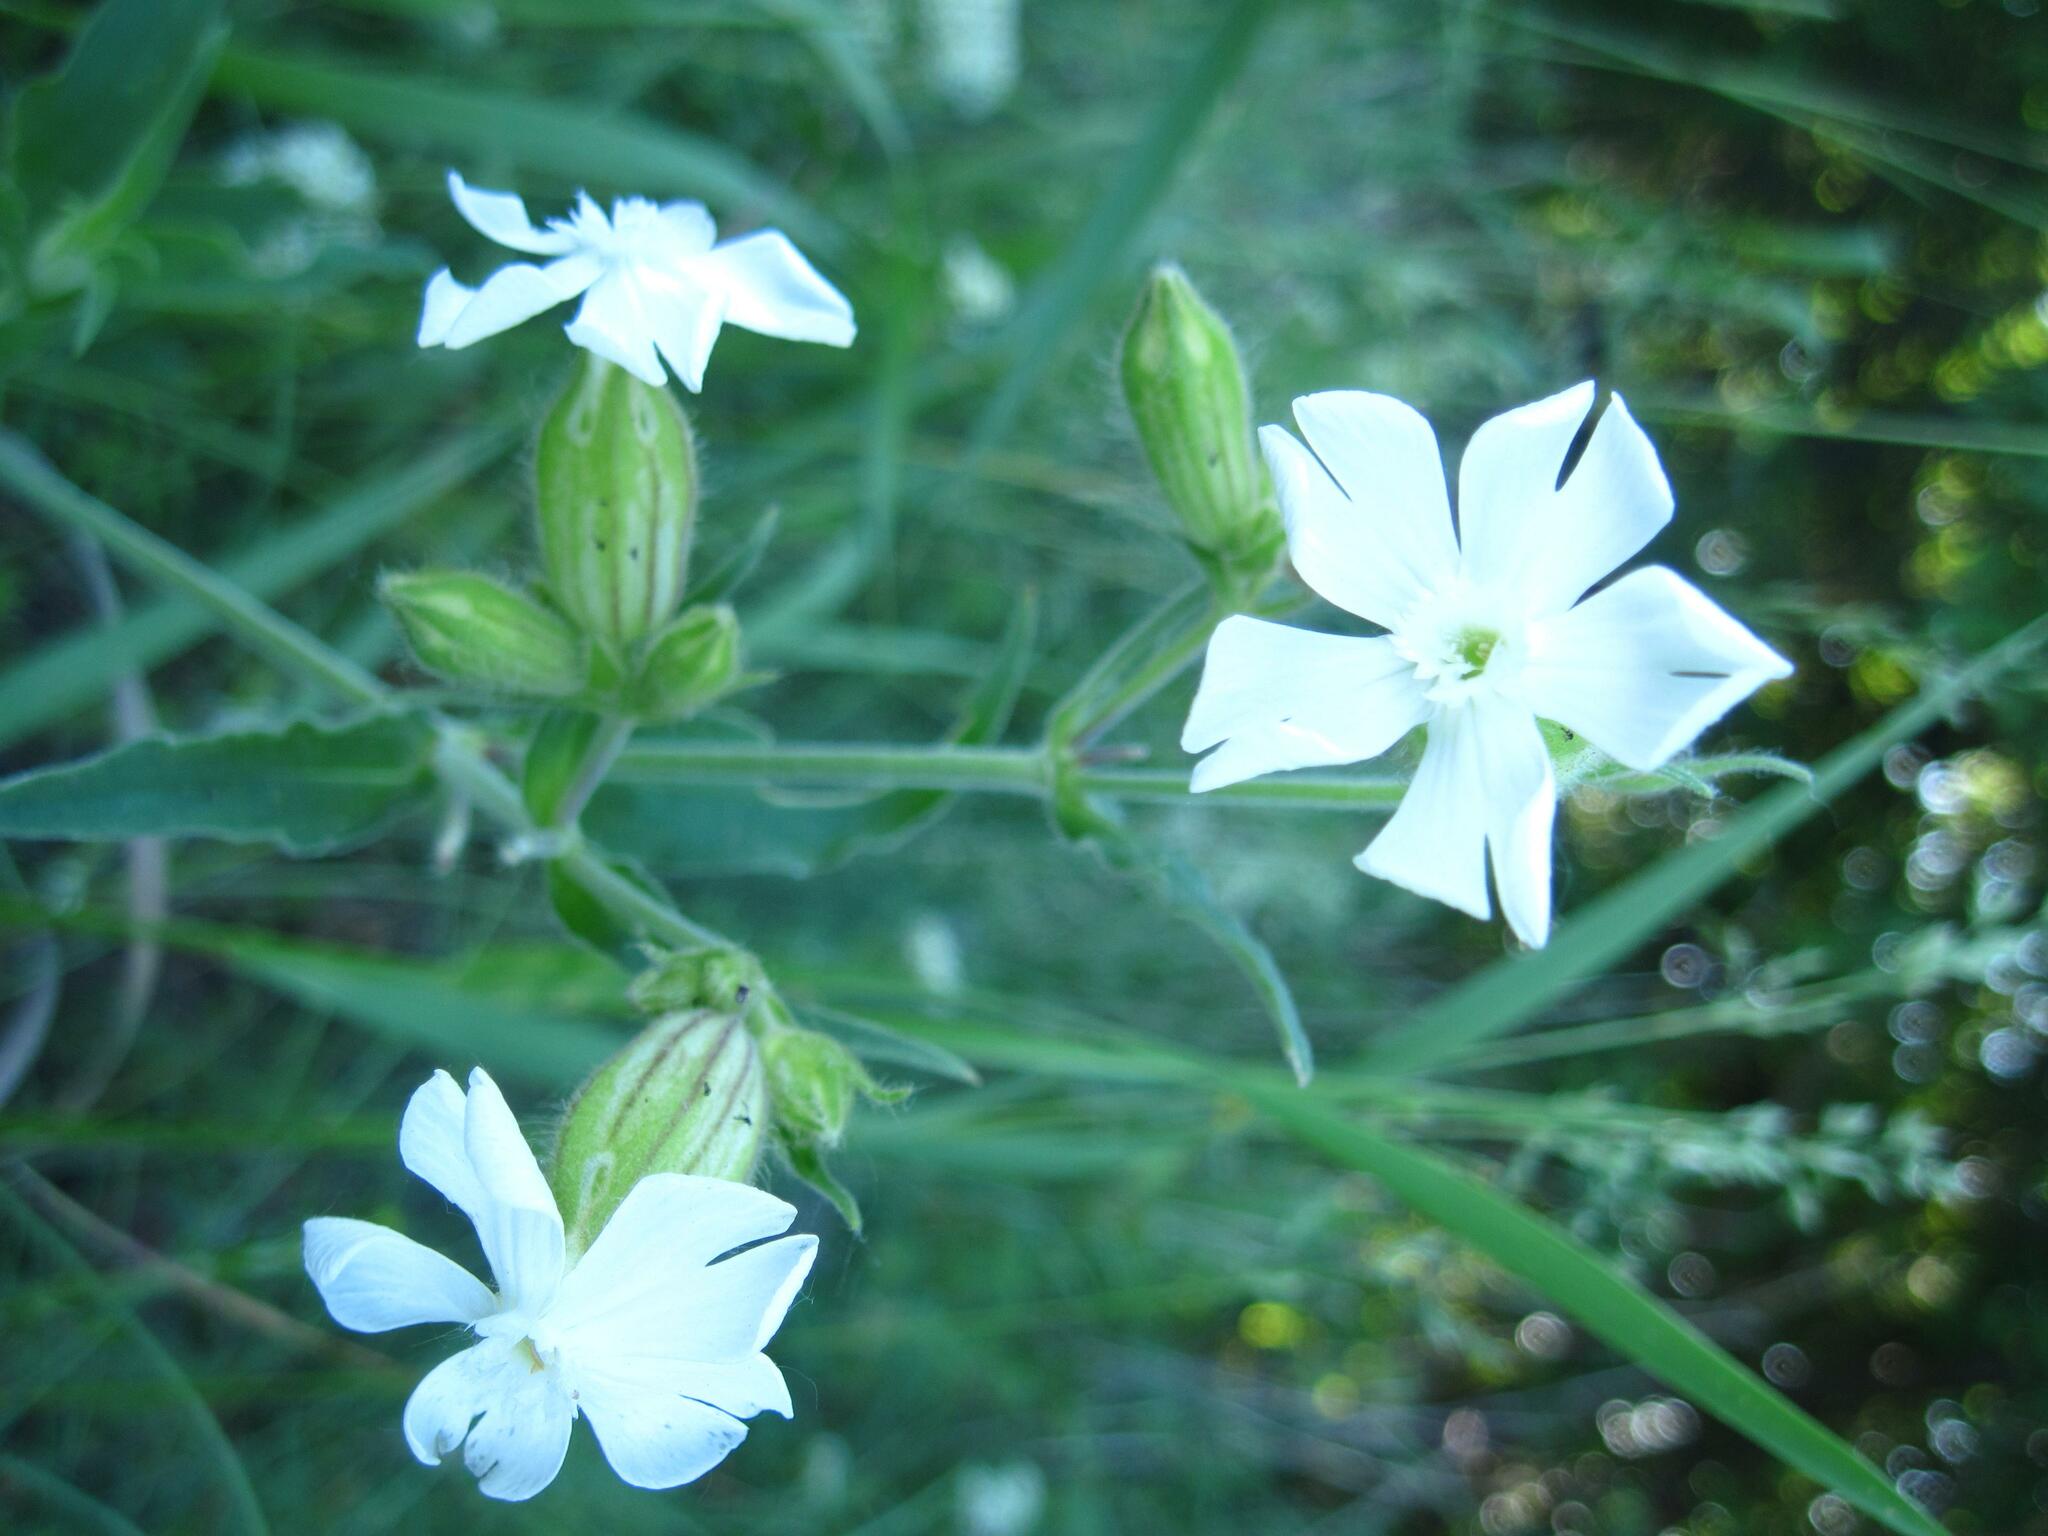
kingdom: Plantae
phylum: Tracheophyta
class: Magnoliopsida
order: Caryophyllales
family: Caryophyllaceae
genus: Silene
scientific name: Silene latifolia
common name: White campion
